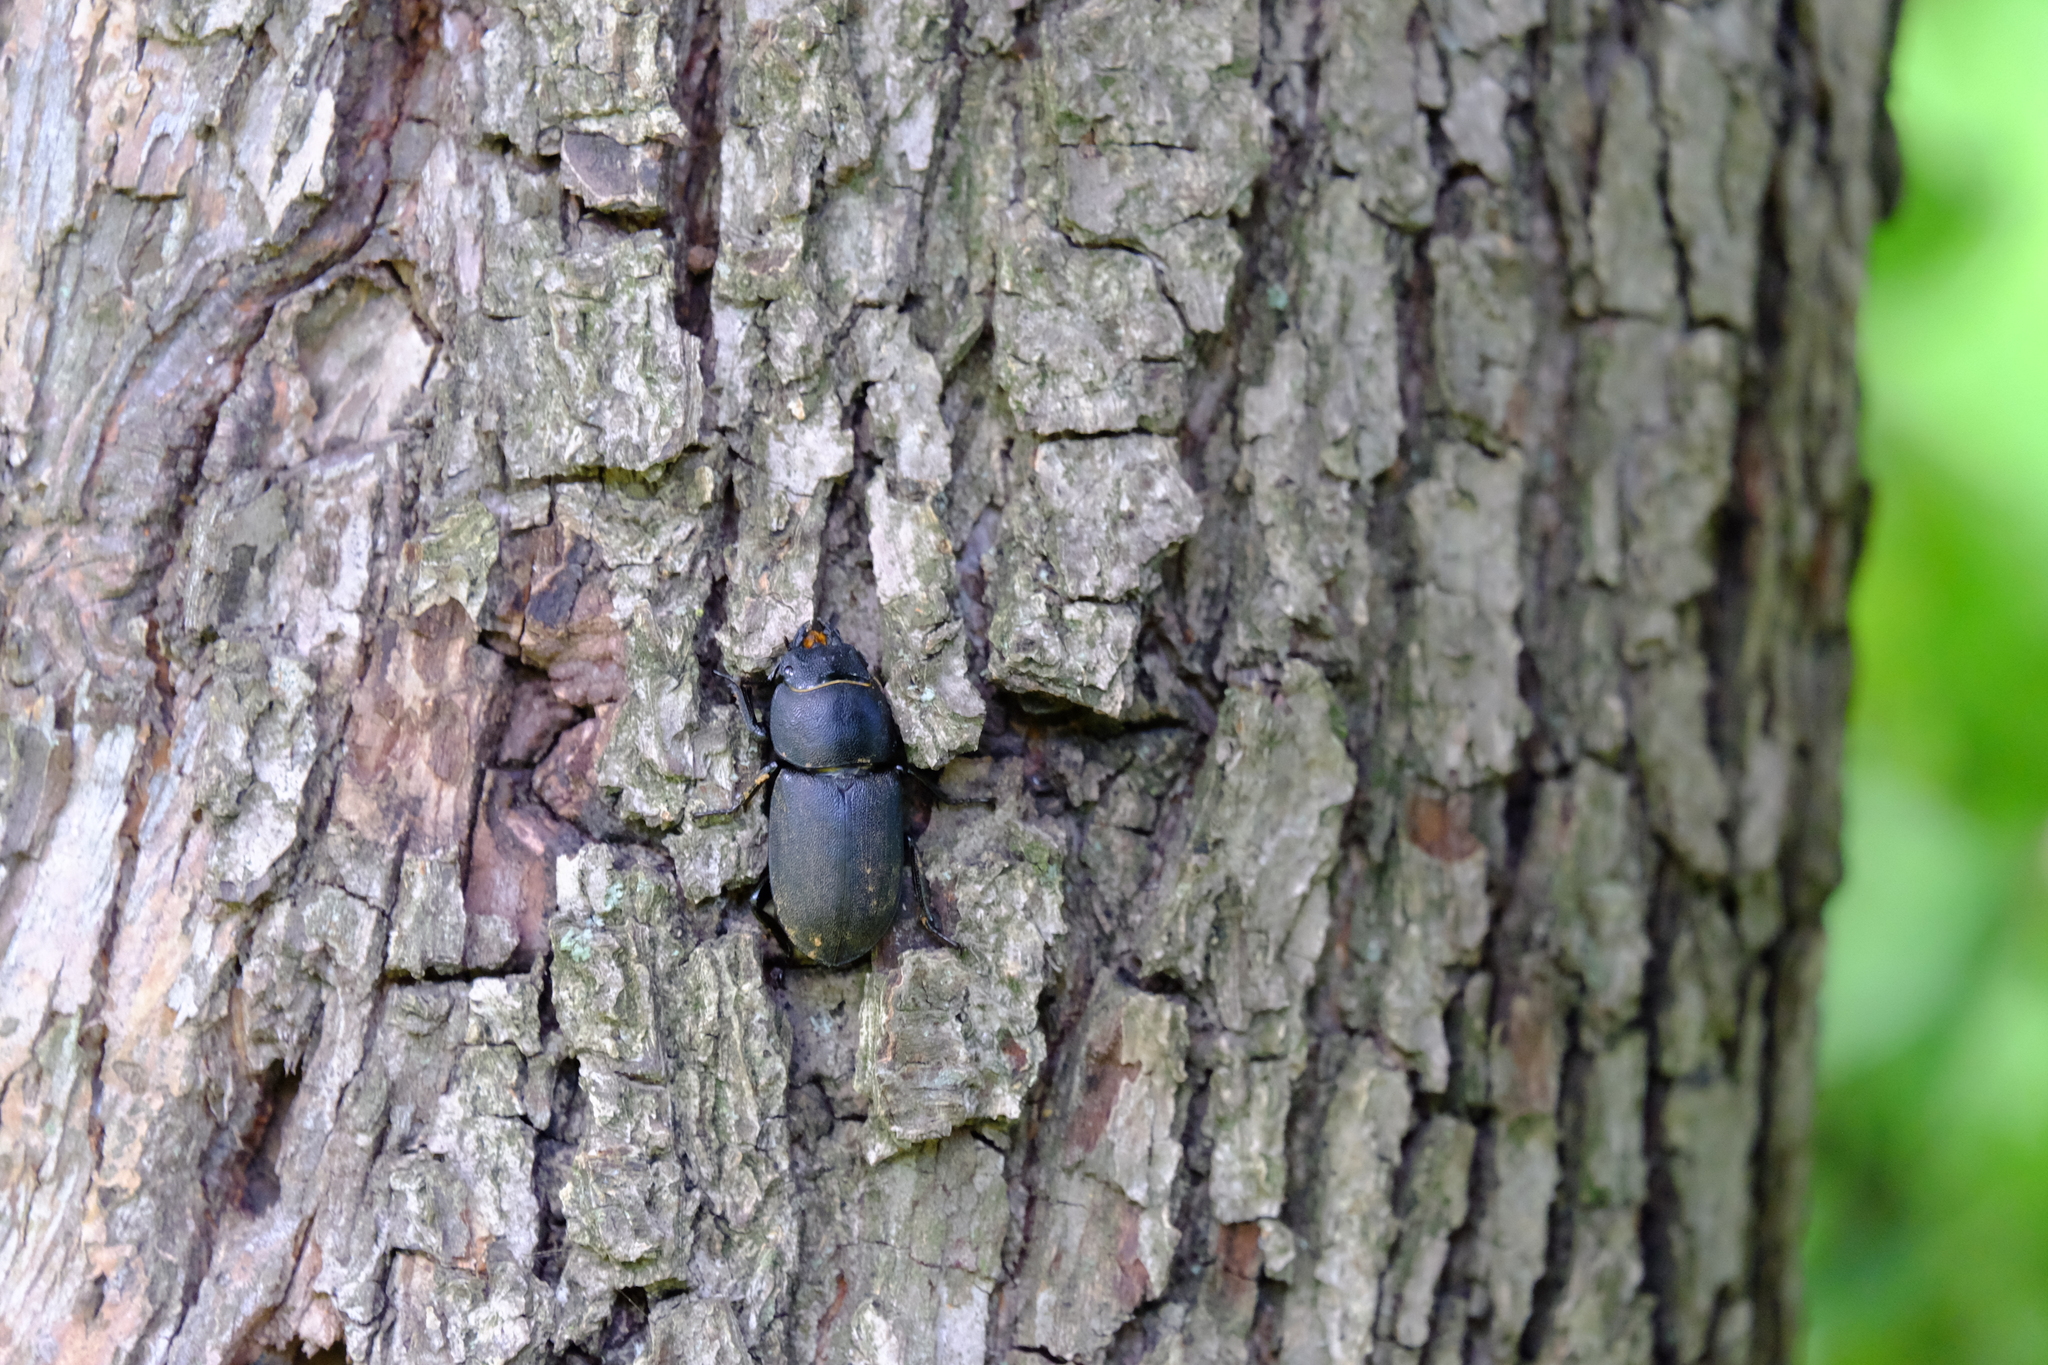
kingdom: Animalia
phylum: Arthropoda
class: Insecta
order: Coleoptera
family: Lucanidae
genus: Dorcus
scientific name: Dorcus parallelipipedus
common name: Lesser stag beetle
